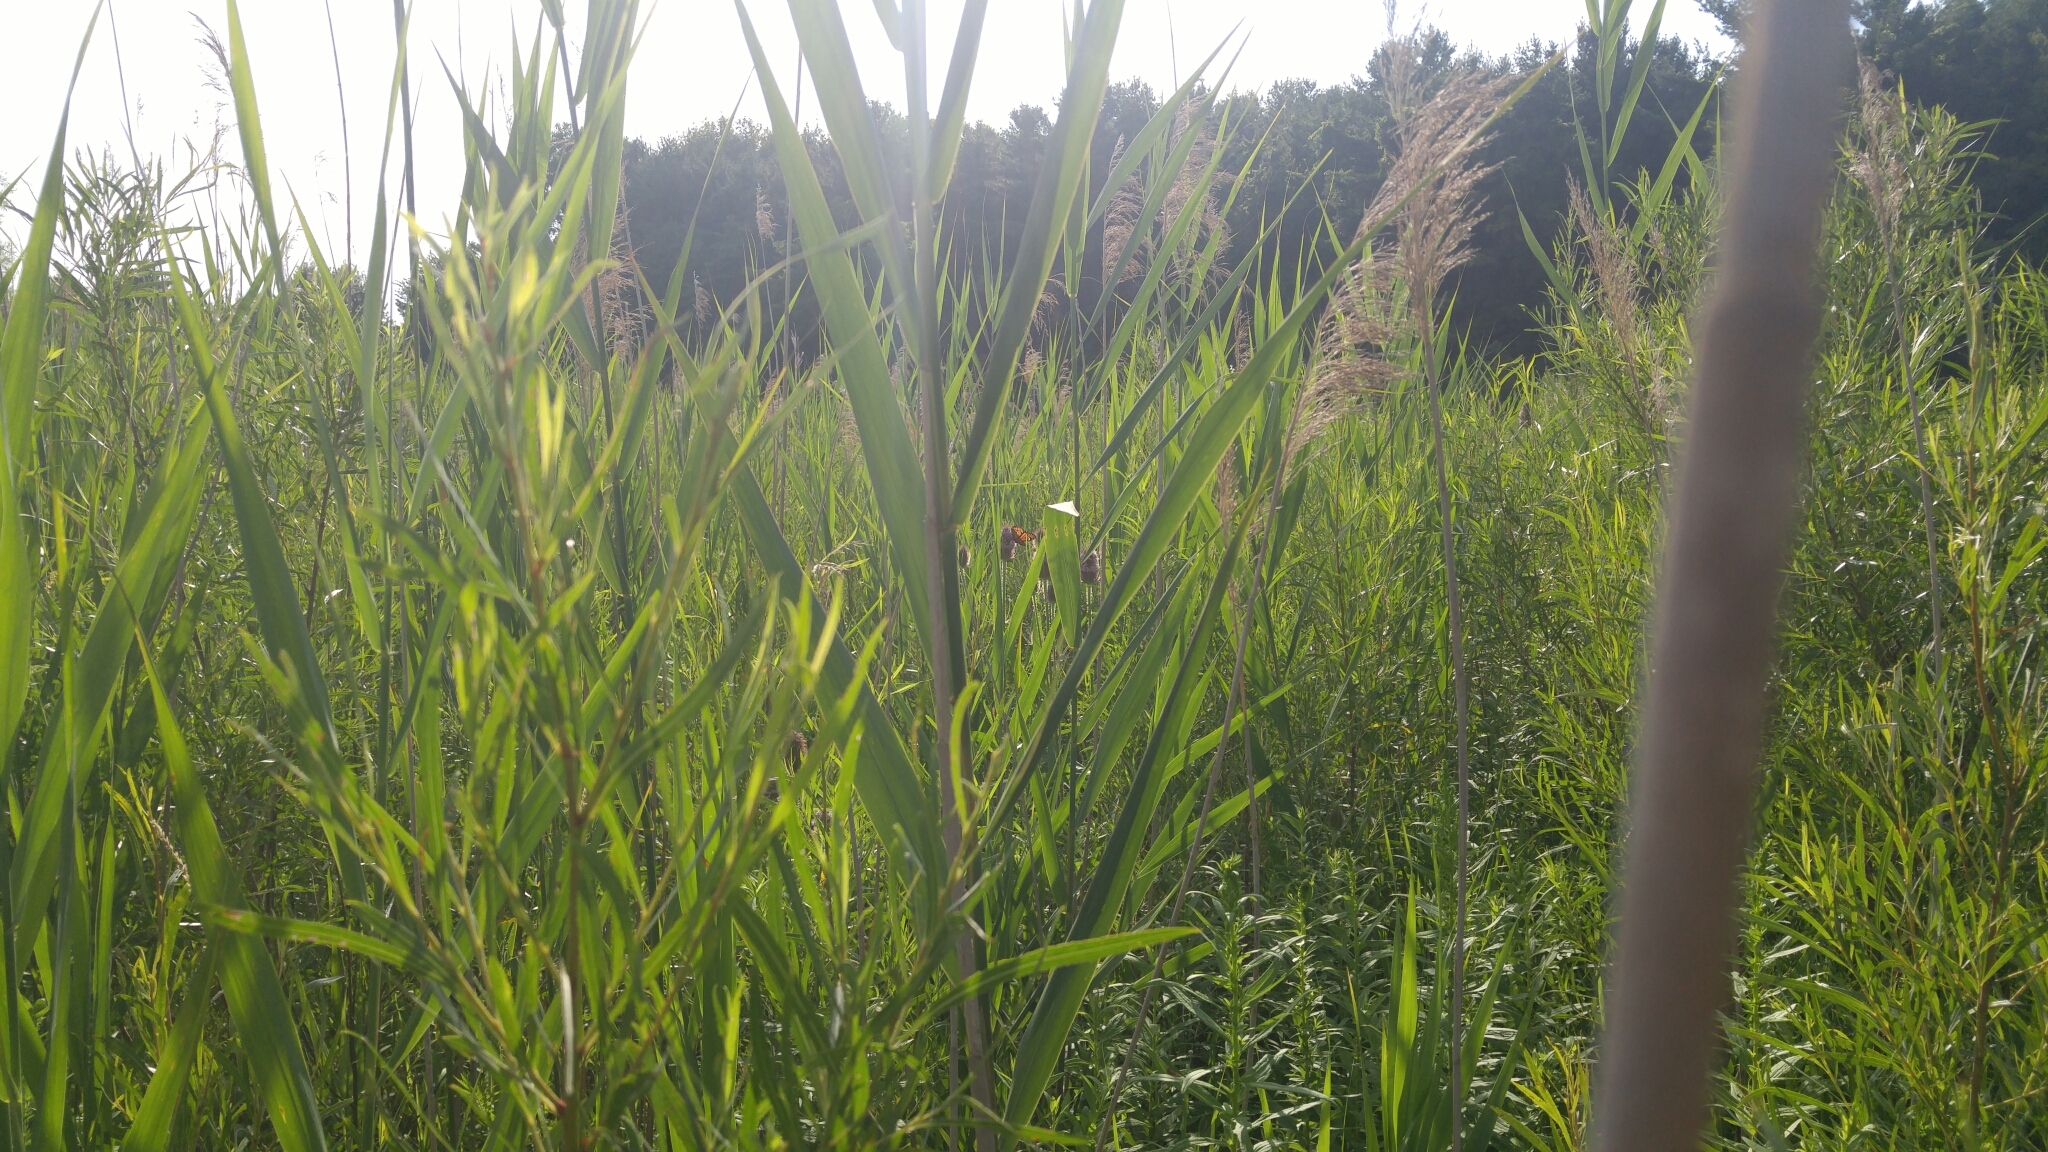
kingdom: Plantae
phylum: Tracheophyta
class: Magnoliopsida
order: Dipsacales
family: Caprifoliaceae
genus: Dipsacus
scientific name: Dipsacus fullonum
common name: Teasel
